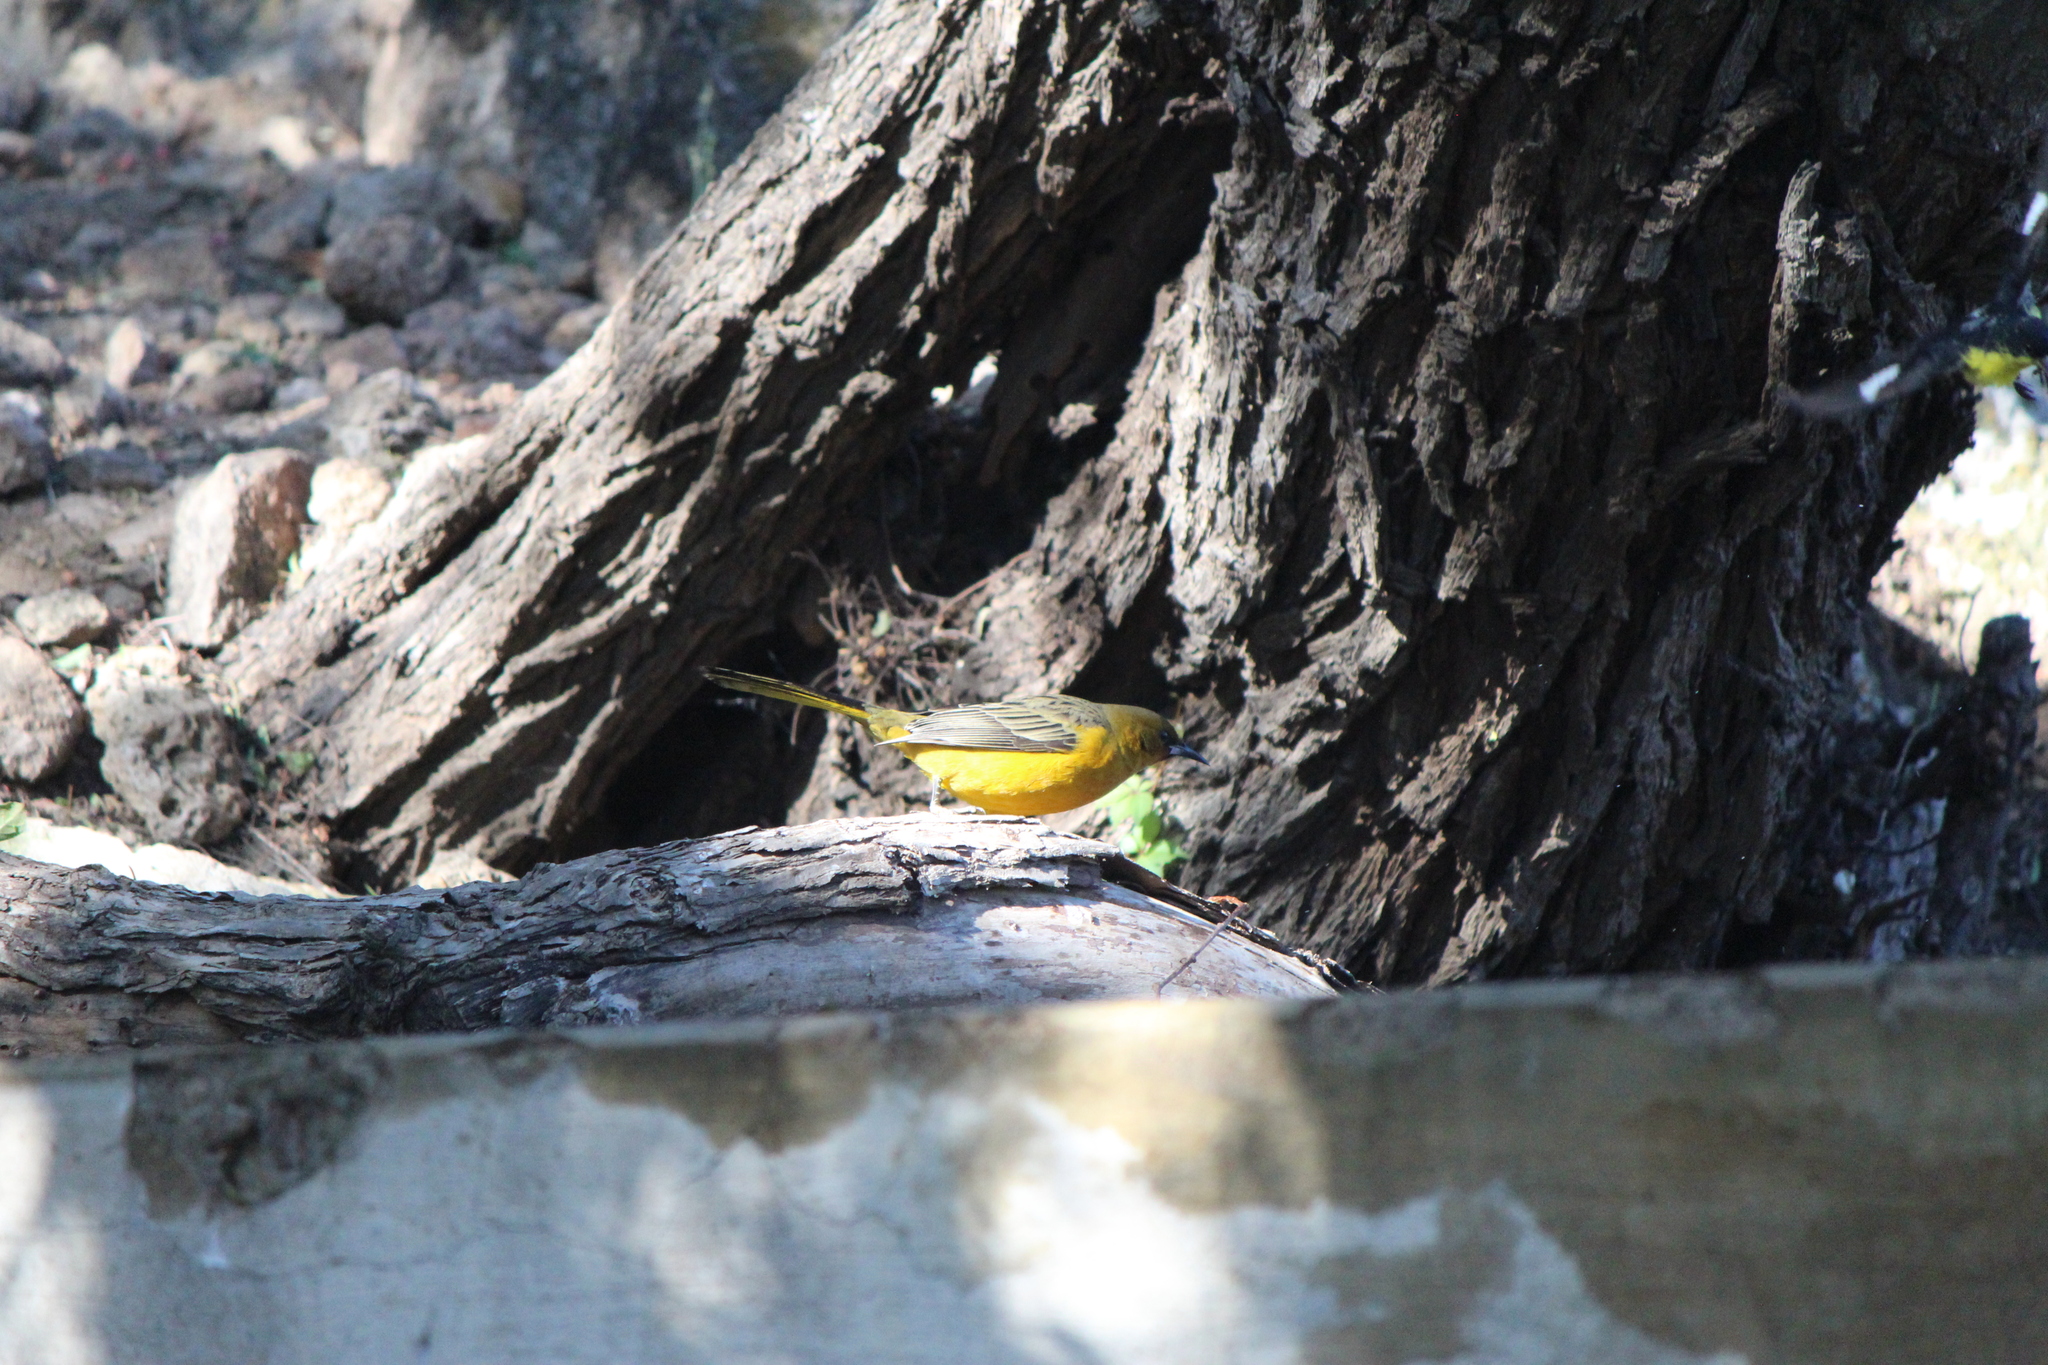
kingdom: Animalia
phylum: Chordata
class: Aves
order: Passeriformes
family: Icteridae
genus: Icterus
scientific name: Icterus spurius
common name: Orchard oriole
